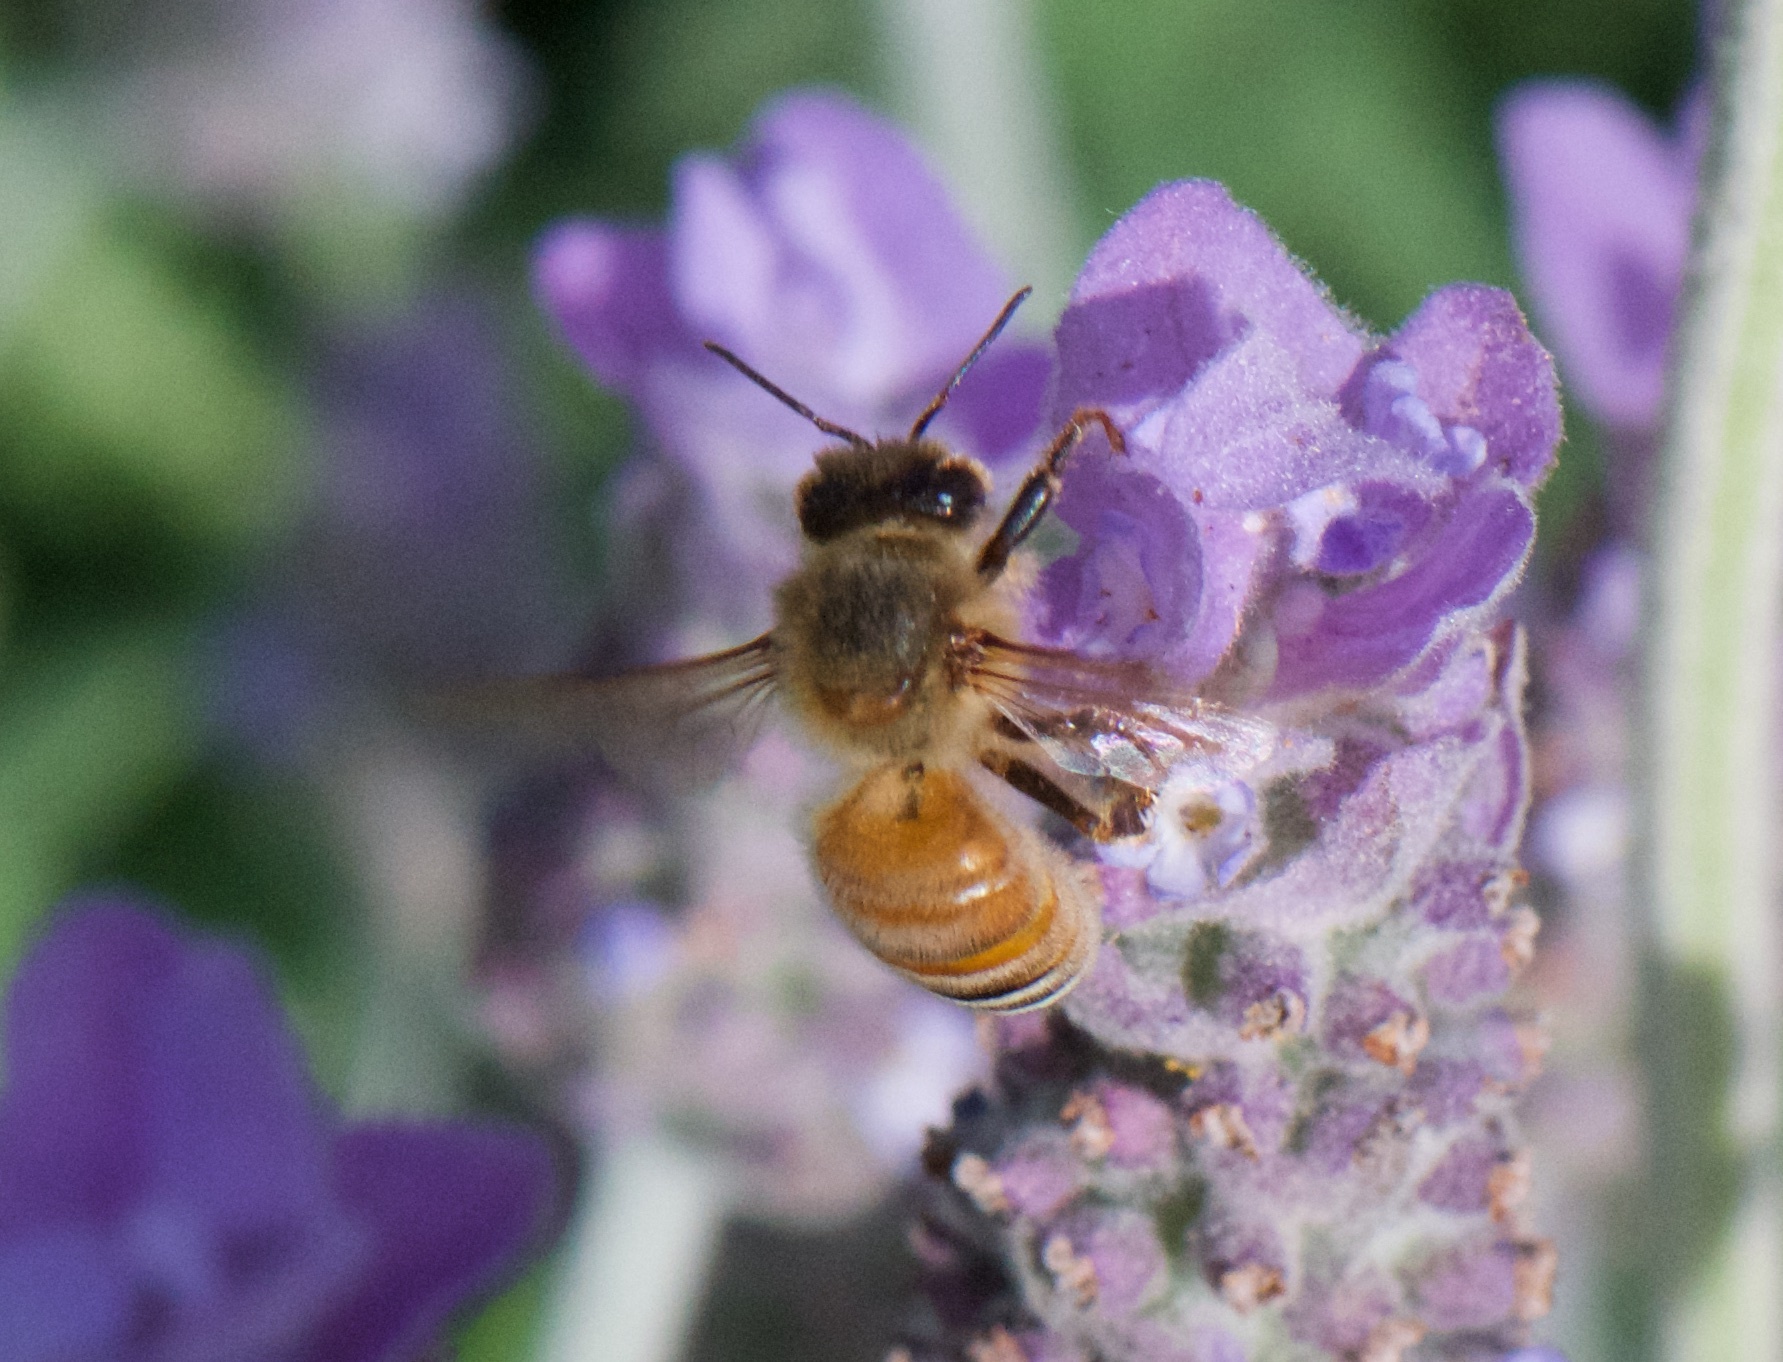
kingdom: Animalia
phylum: Arthropoda
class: Insecta
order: Hymenoptera
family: Apidae
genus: Apis
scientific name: Apis mellifera
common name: Honey bee
